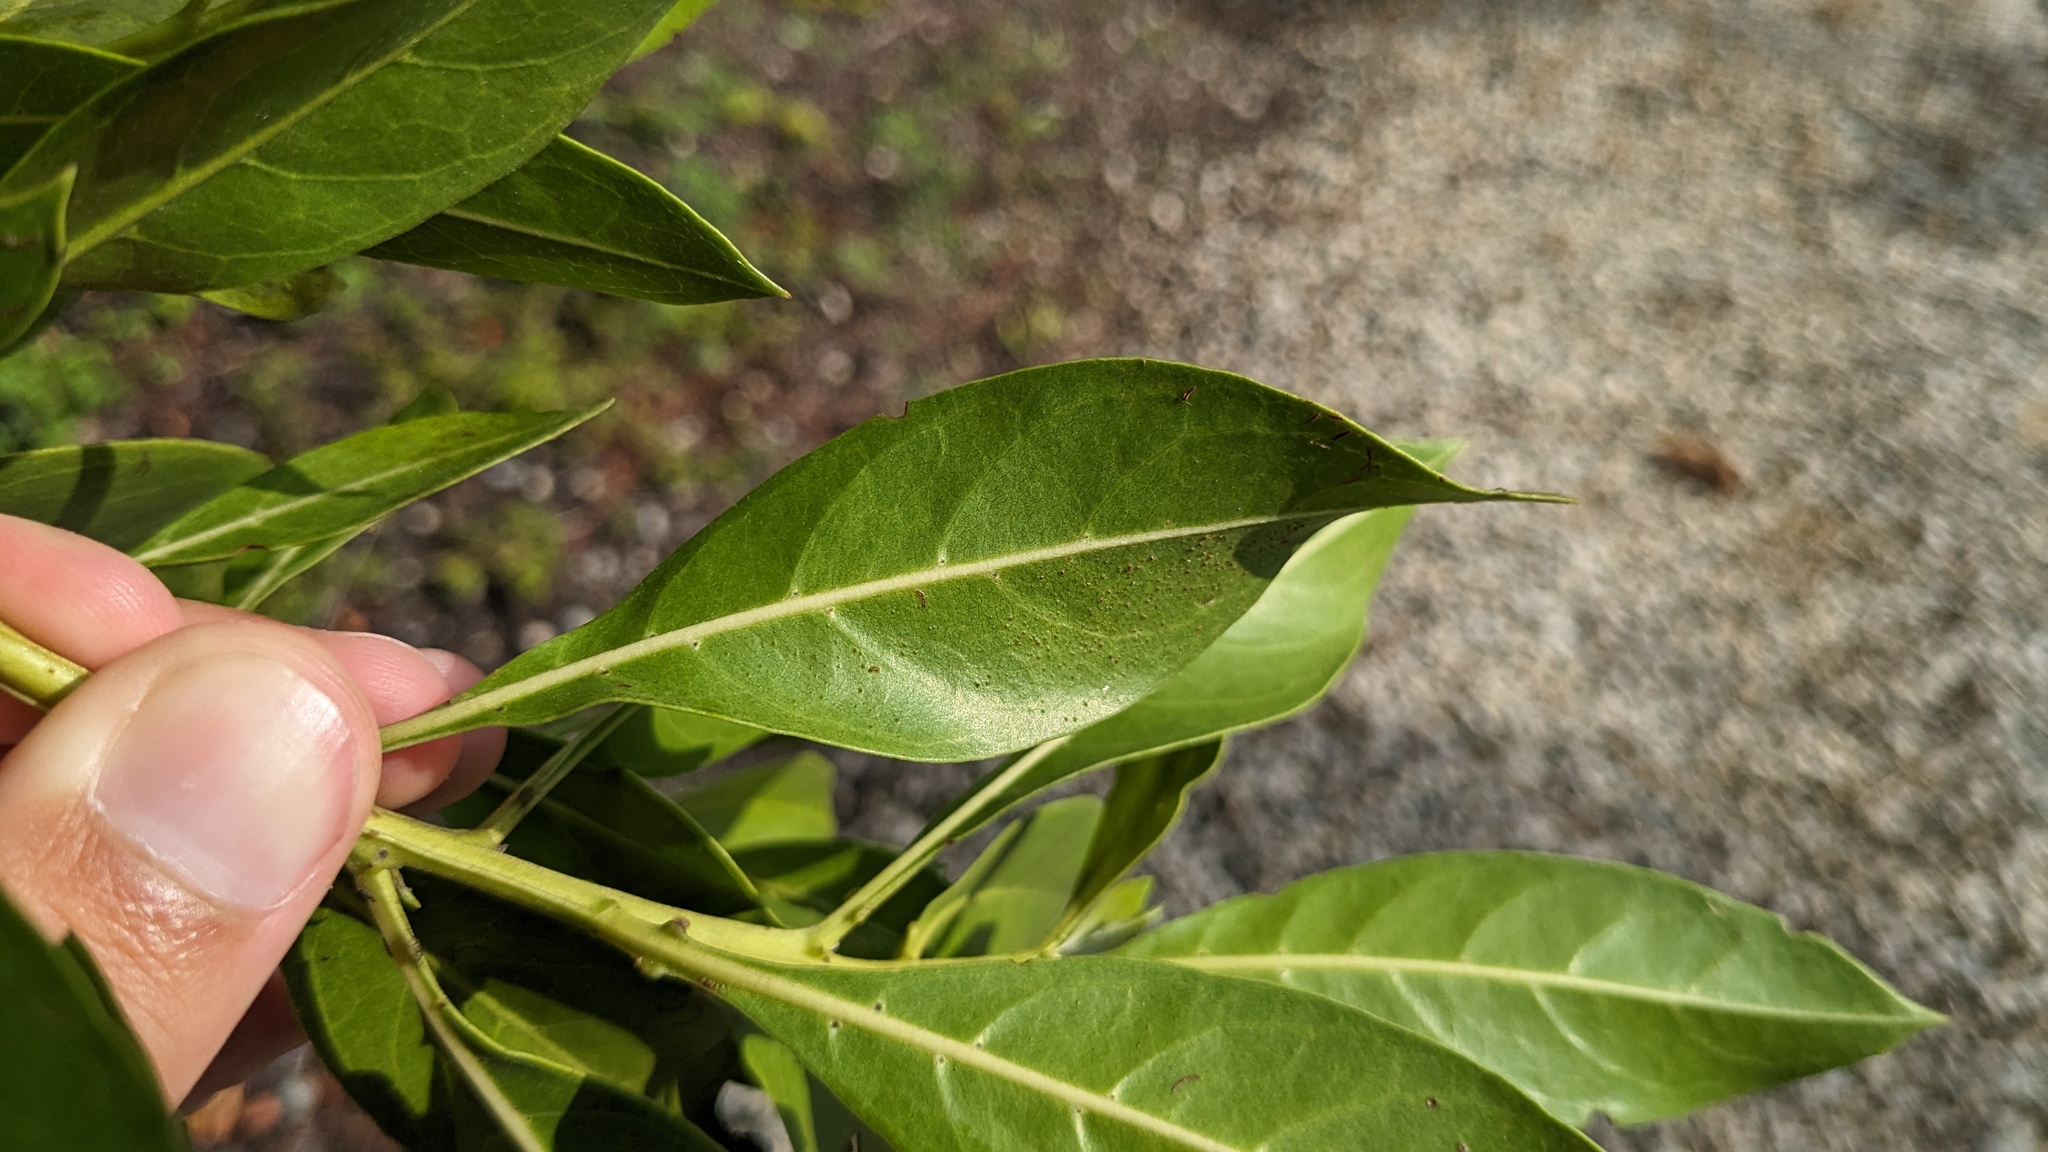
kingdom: Plantae
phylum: Tracheophyta
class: Magnoliopsida
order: Myrtales
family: Combretaceae
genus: Conocarpus
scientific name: Conocarpus erectus
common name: Button mangrove
